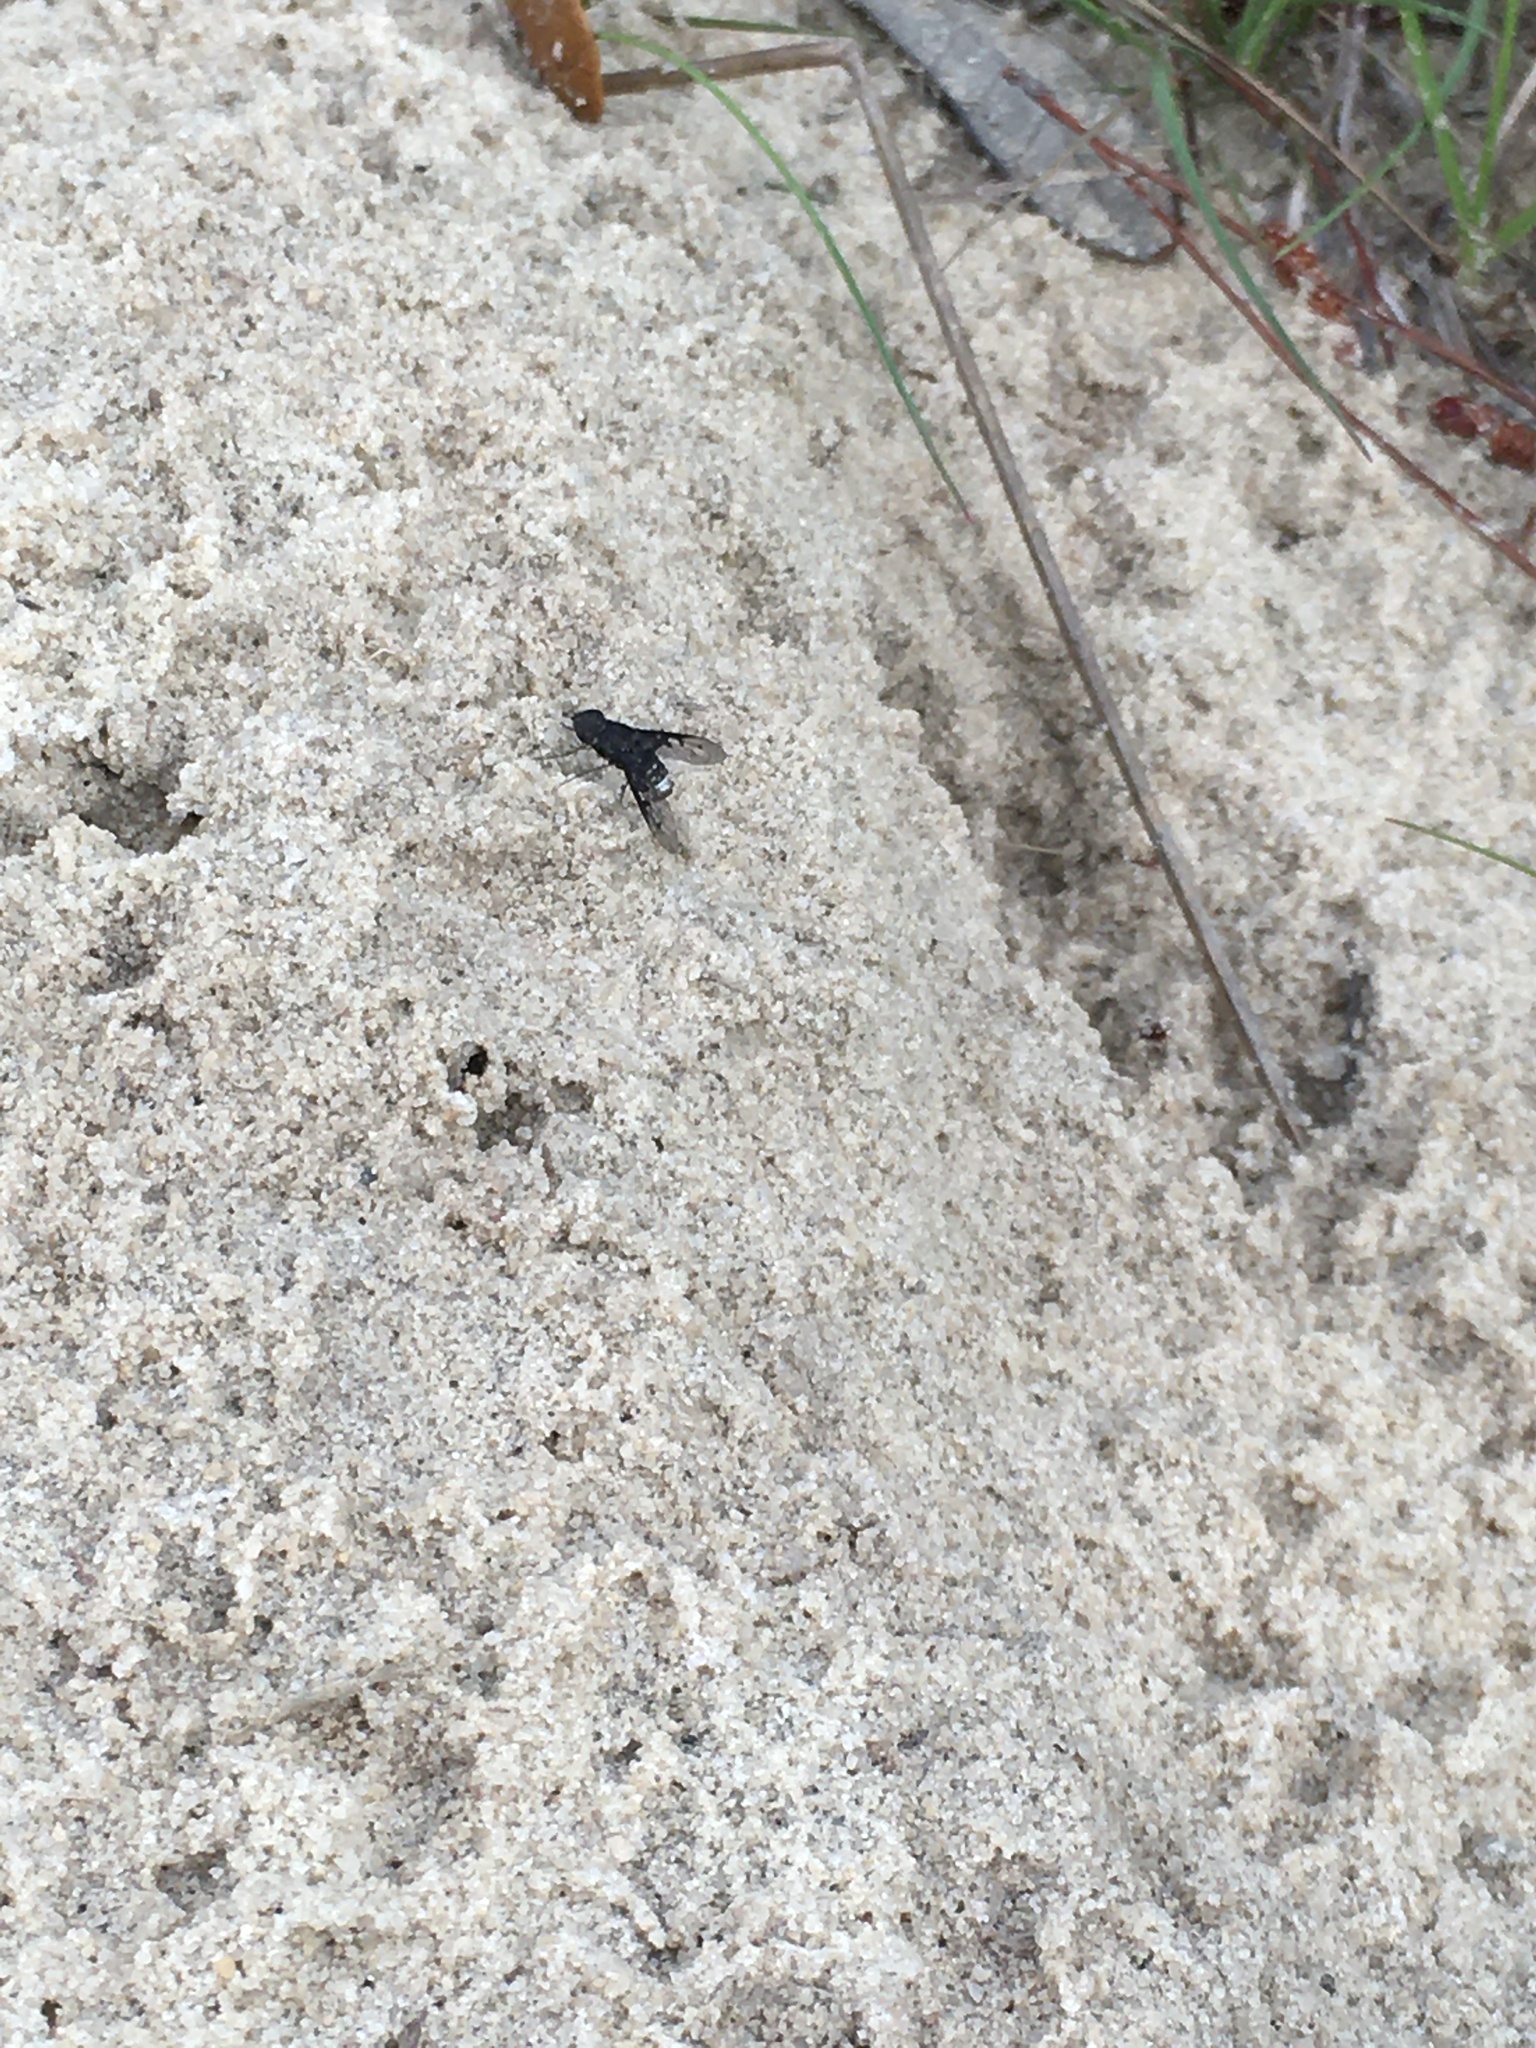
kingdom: Animalia
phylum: Arthropoda
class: Insecta
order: Diptera
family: Bombyliidae
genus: Anthrax
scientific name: Anthrax albofasciatus
